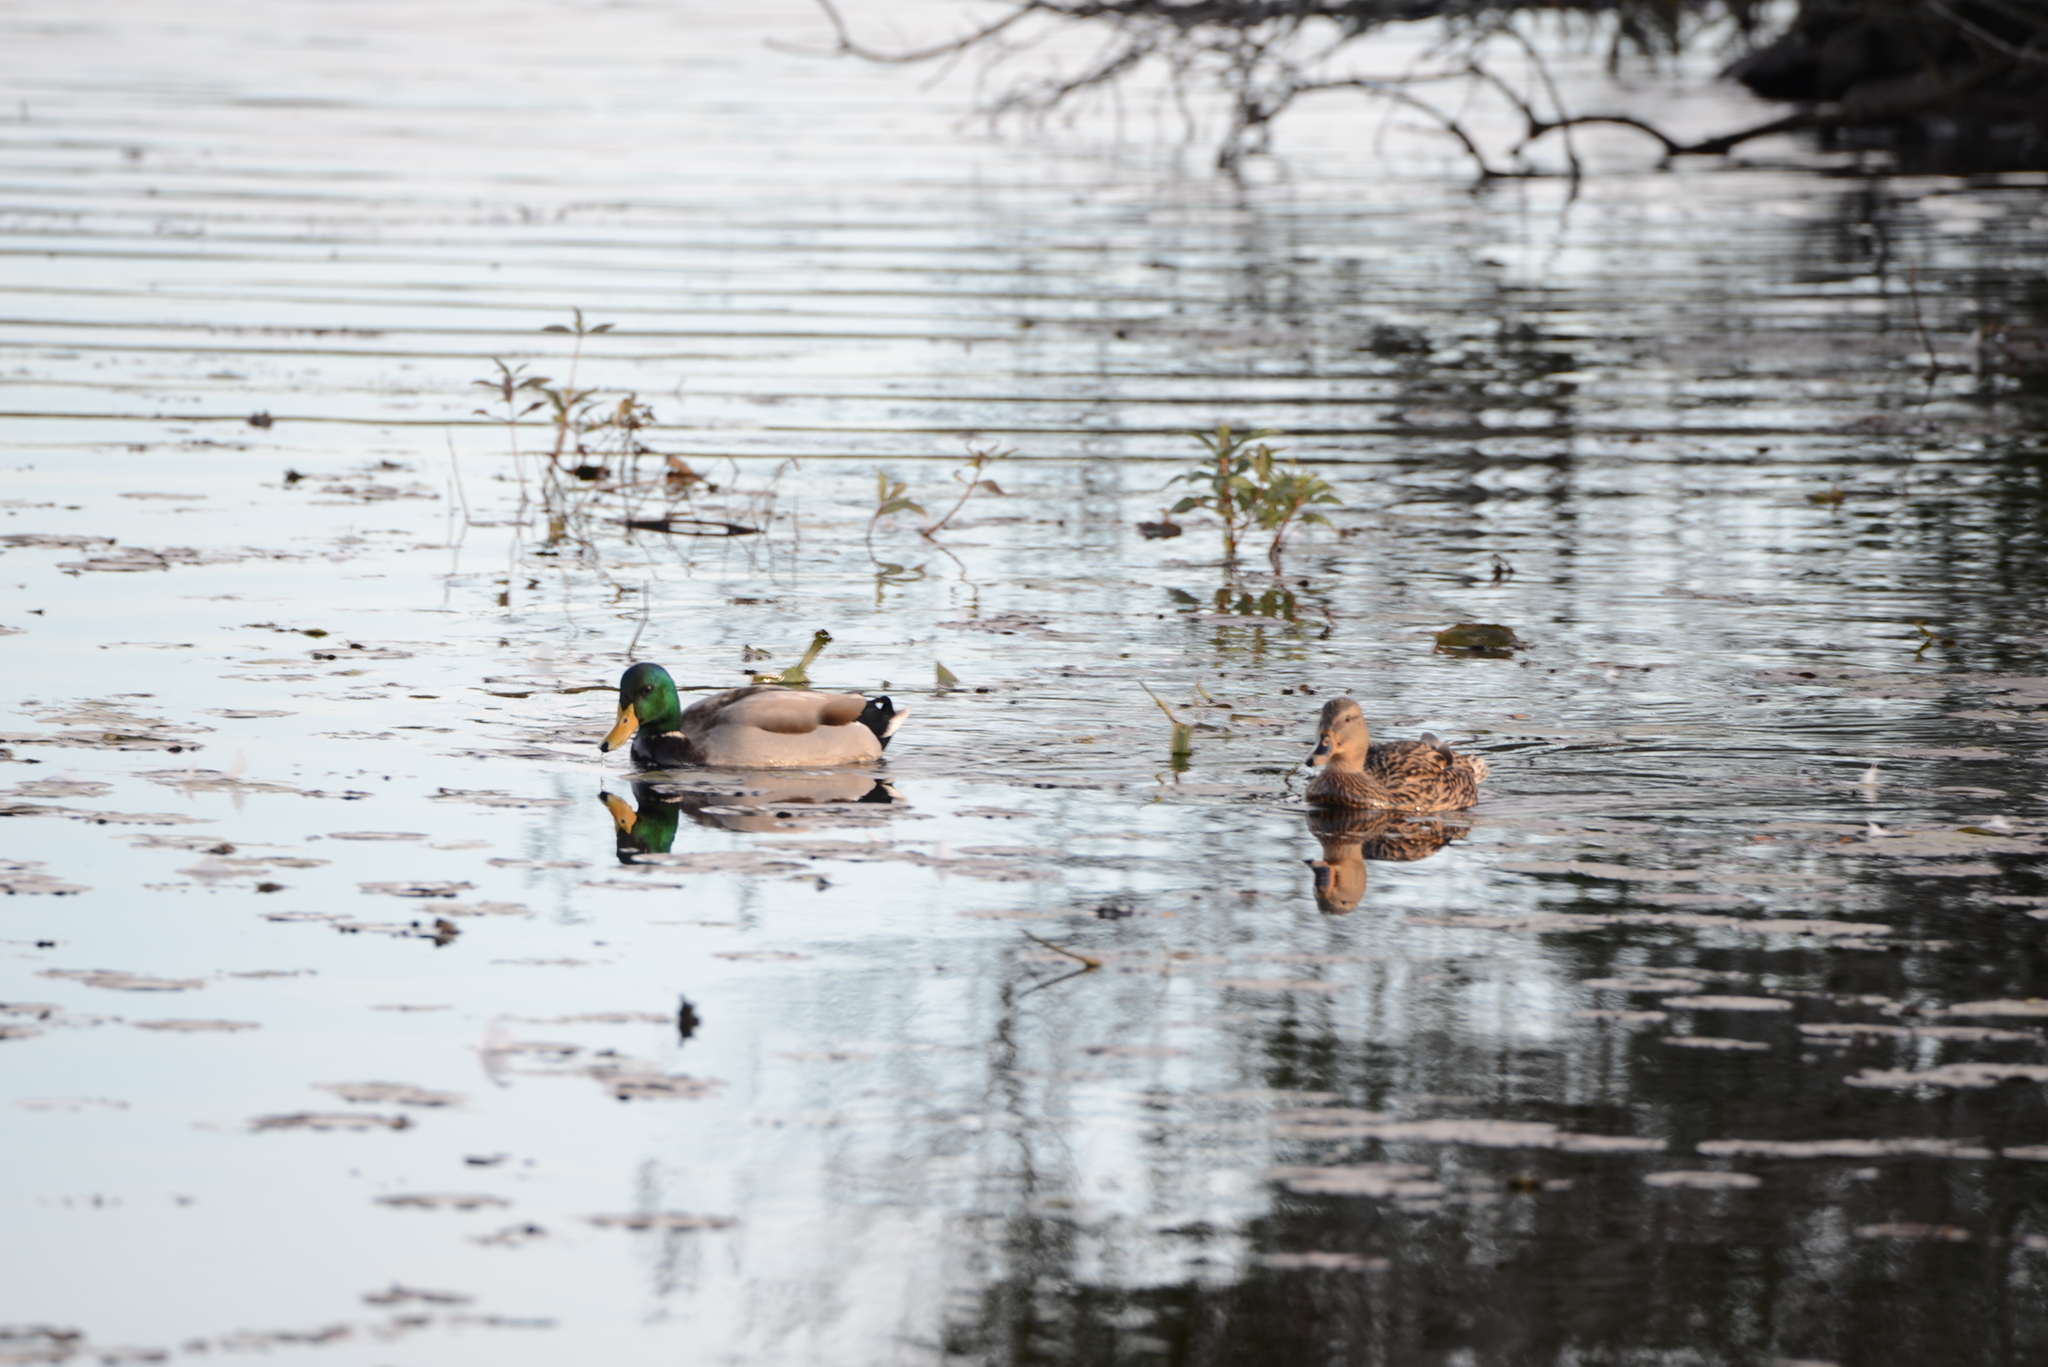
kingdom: Animalia
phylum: Chordata
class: Aves
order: Anseriformes
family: Anatidae
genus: Anas
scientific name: Anas platyrhynchos
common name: Mallard
